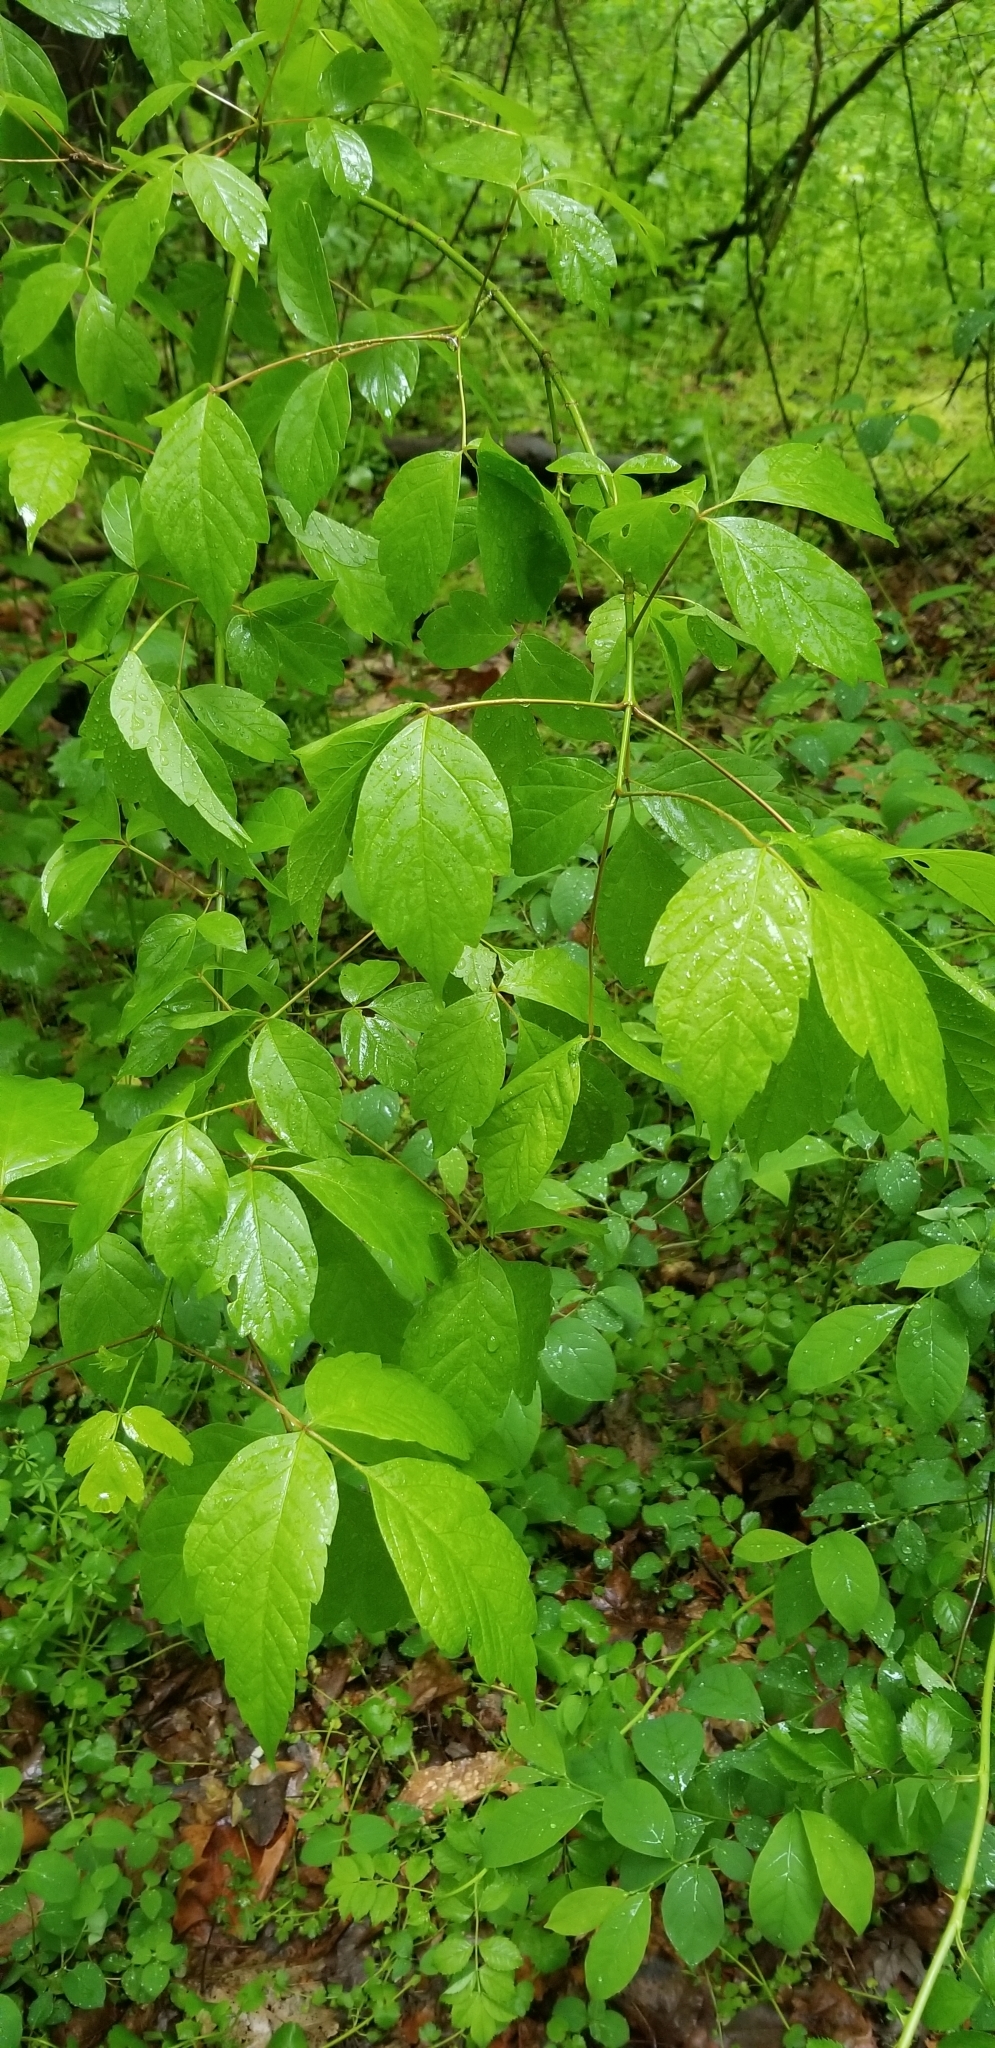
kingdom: Plantae
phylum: Tracheophyta
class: Magnoliopsida
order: Sapindales
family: Sapindaceae
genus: Acer
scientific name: Acer negundo
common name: Ashleaf maple
